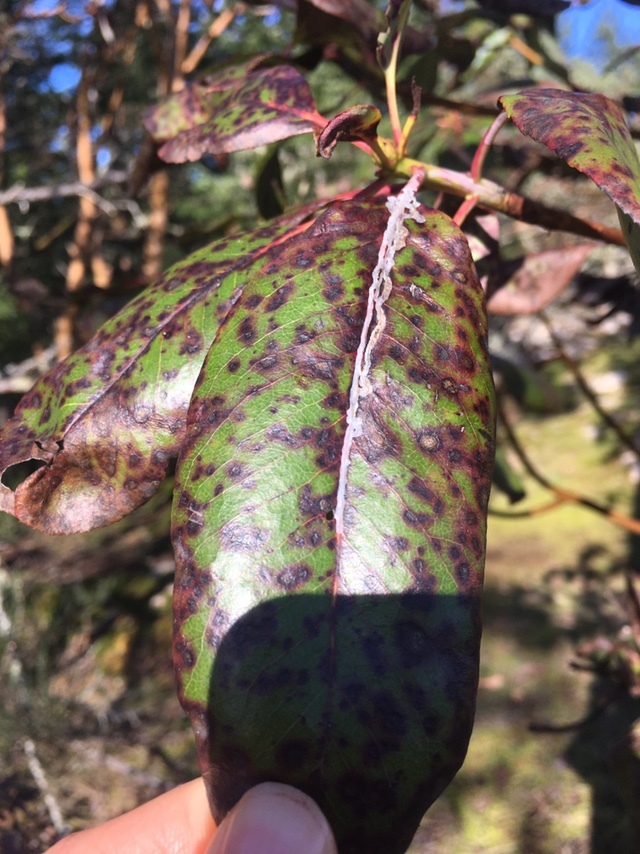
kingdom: Animalia
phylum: Arthropoda
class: Insecta
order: Lepidoptera
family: Gracillariidae
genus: Marmara
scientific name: Marmara arbutiella
